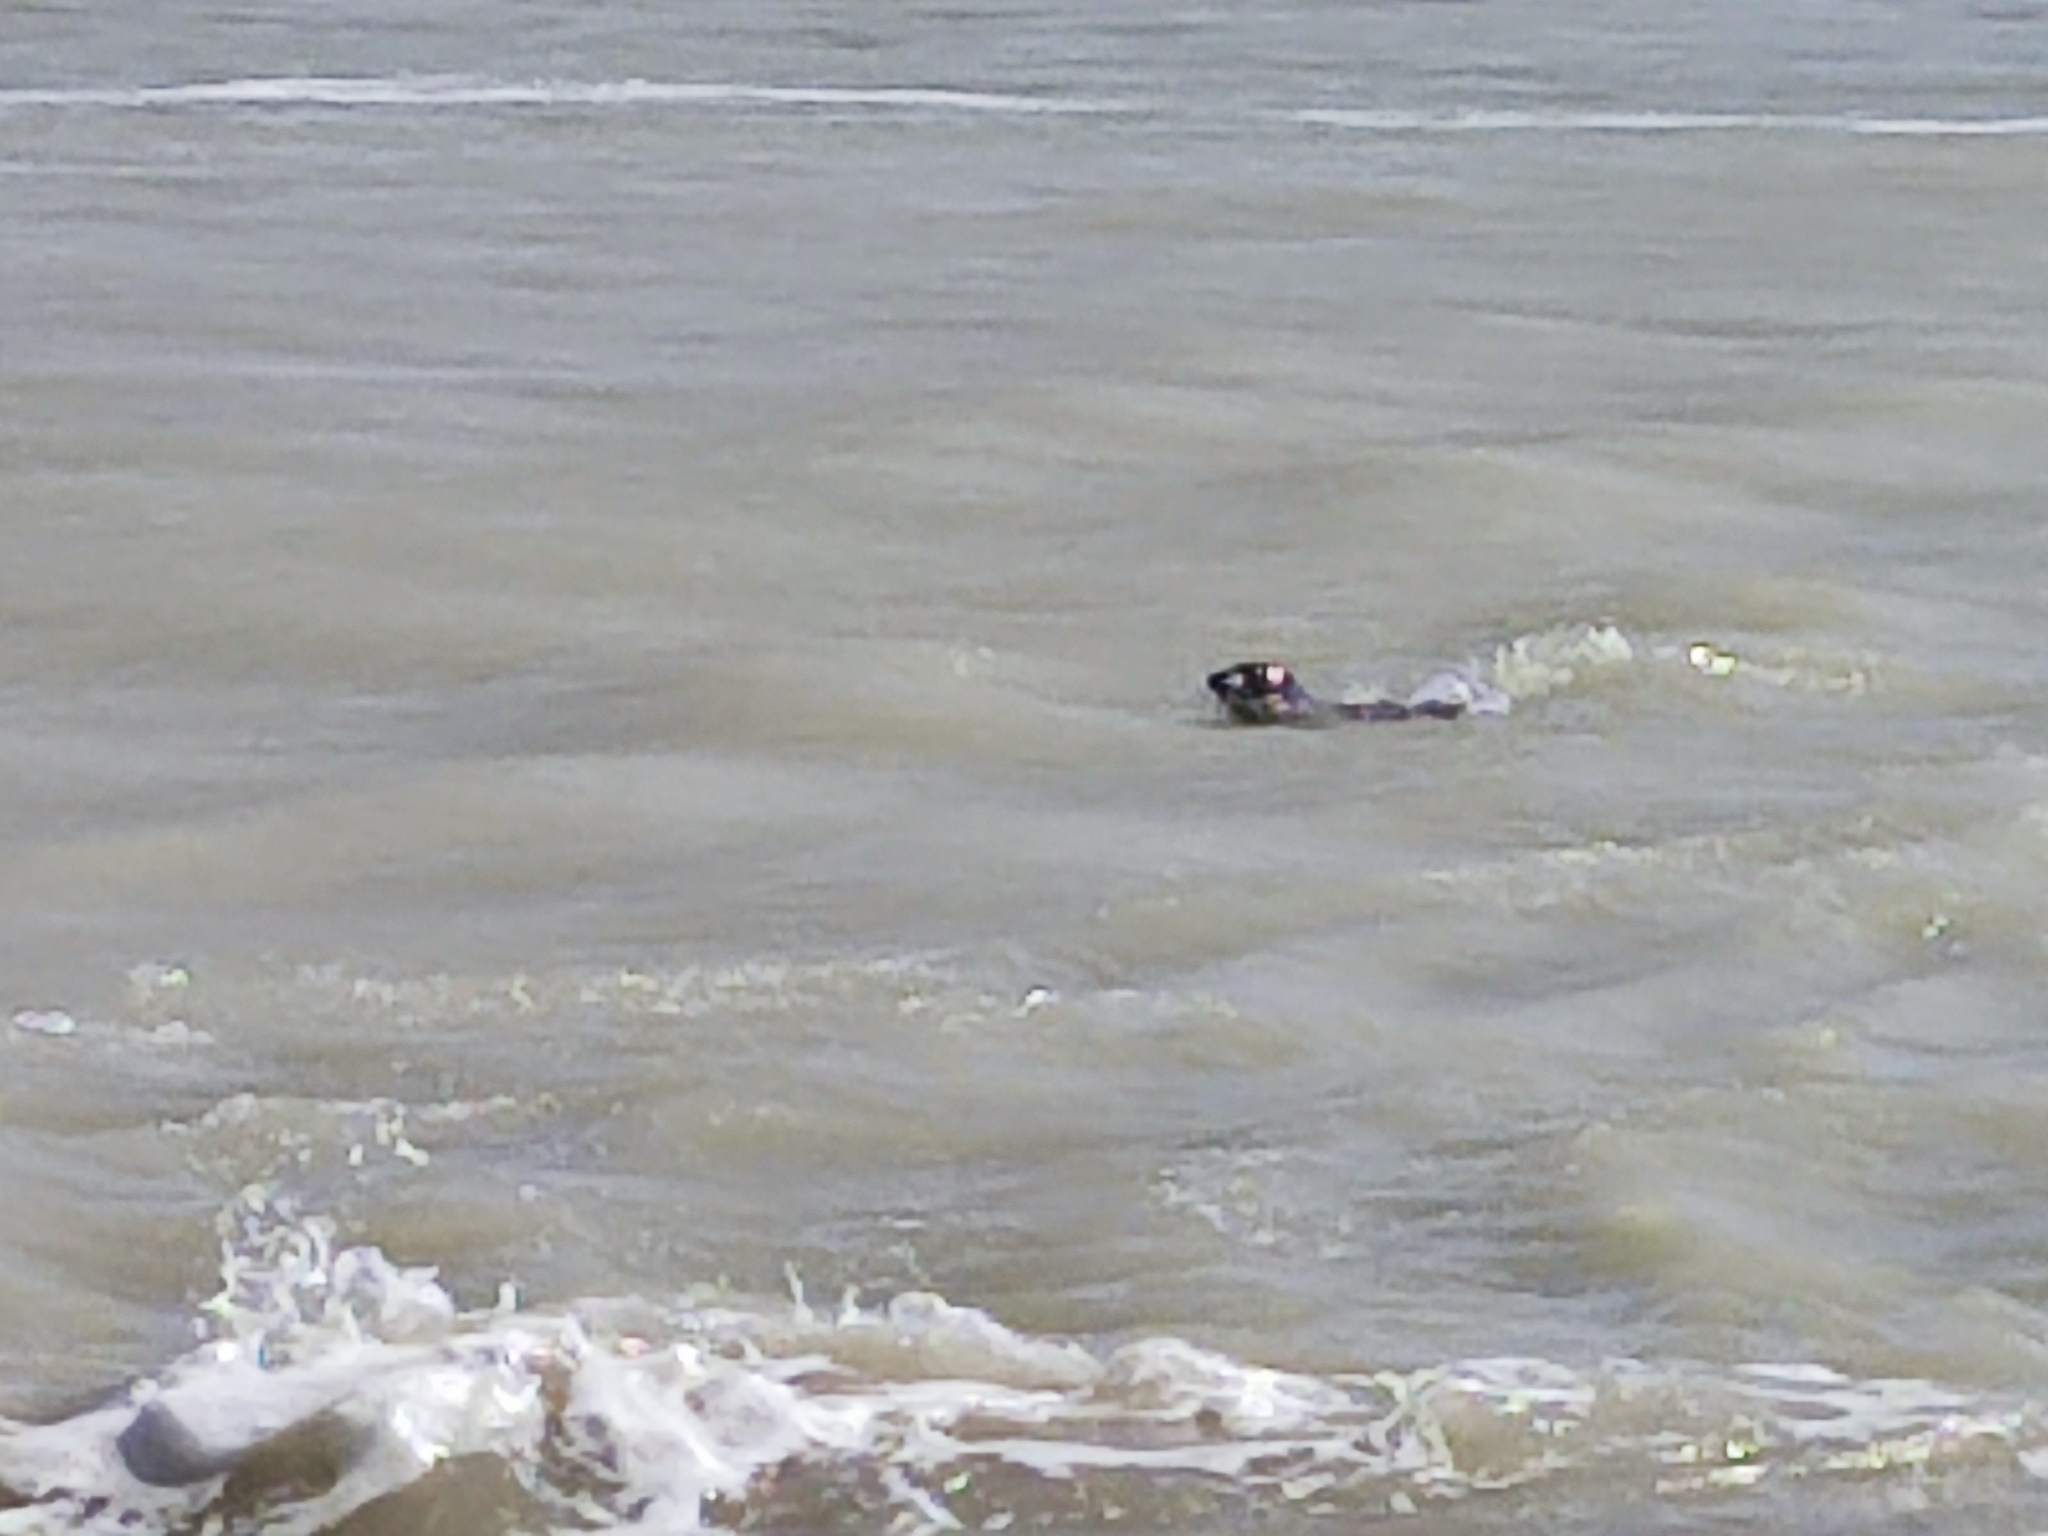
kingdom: Animalia
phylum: Chordata
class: Mammalia
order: Carnivora
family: Phocidae
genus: Halichoerus
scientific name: Halichoerus grypus
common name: Grey seal
